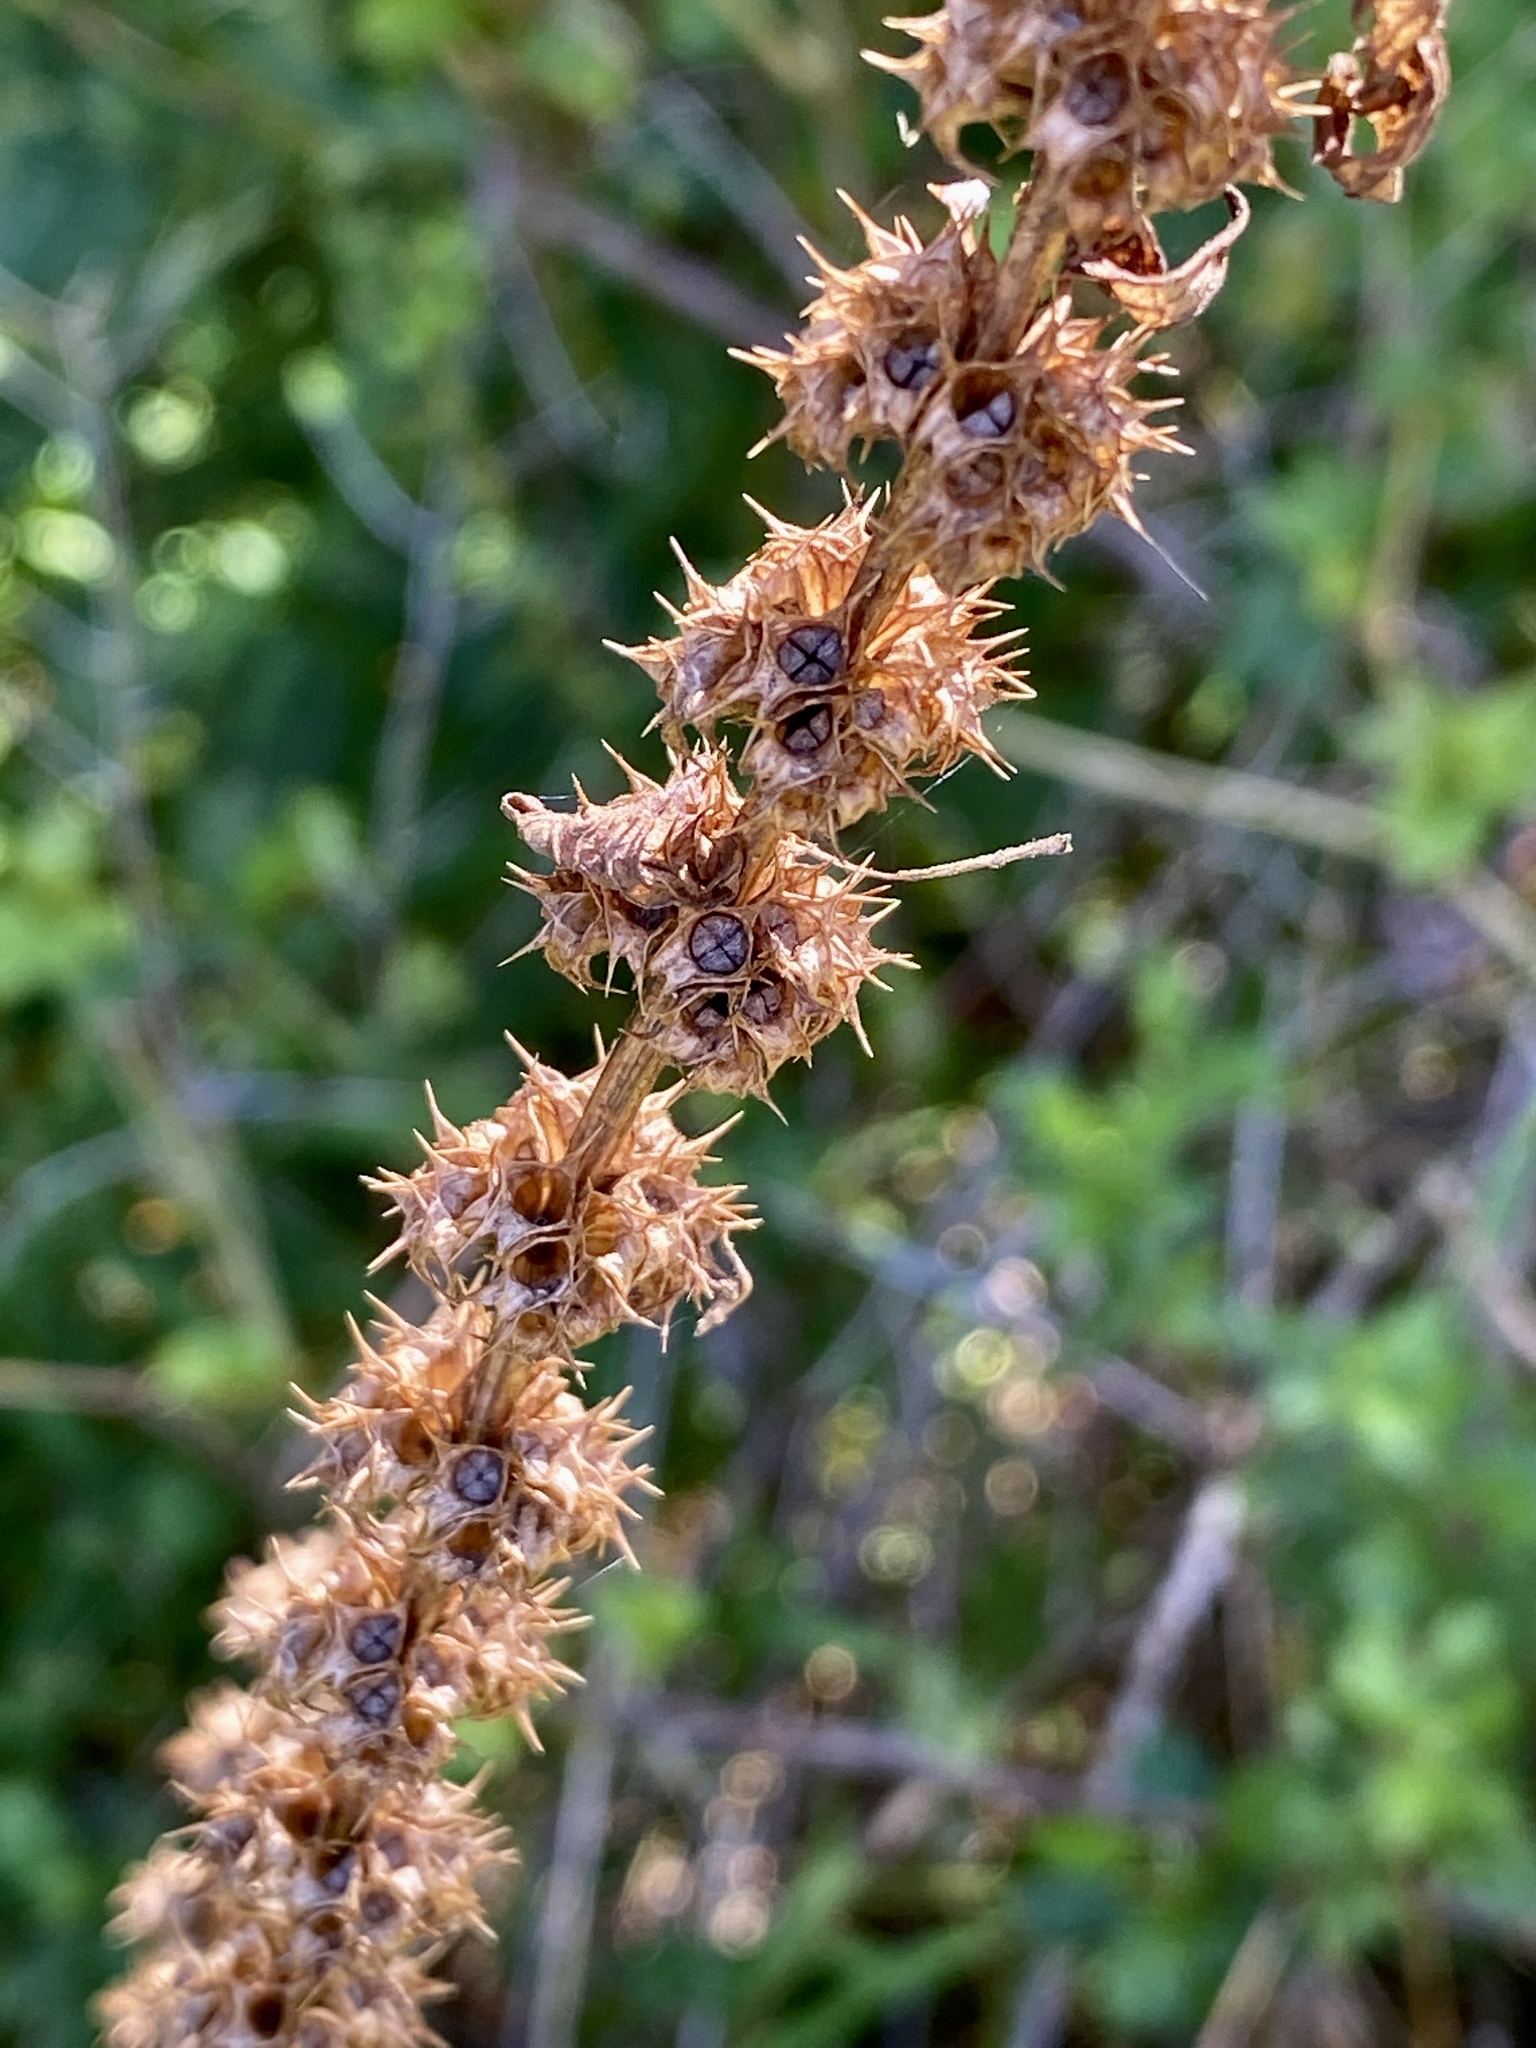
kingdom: Plantae
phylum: Tracheophyta
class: Magnoliopsida
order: Lamiales
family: Lamiaceae
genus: Leonurus
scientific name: Leonurus cardiaca
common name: Motherwort
